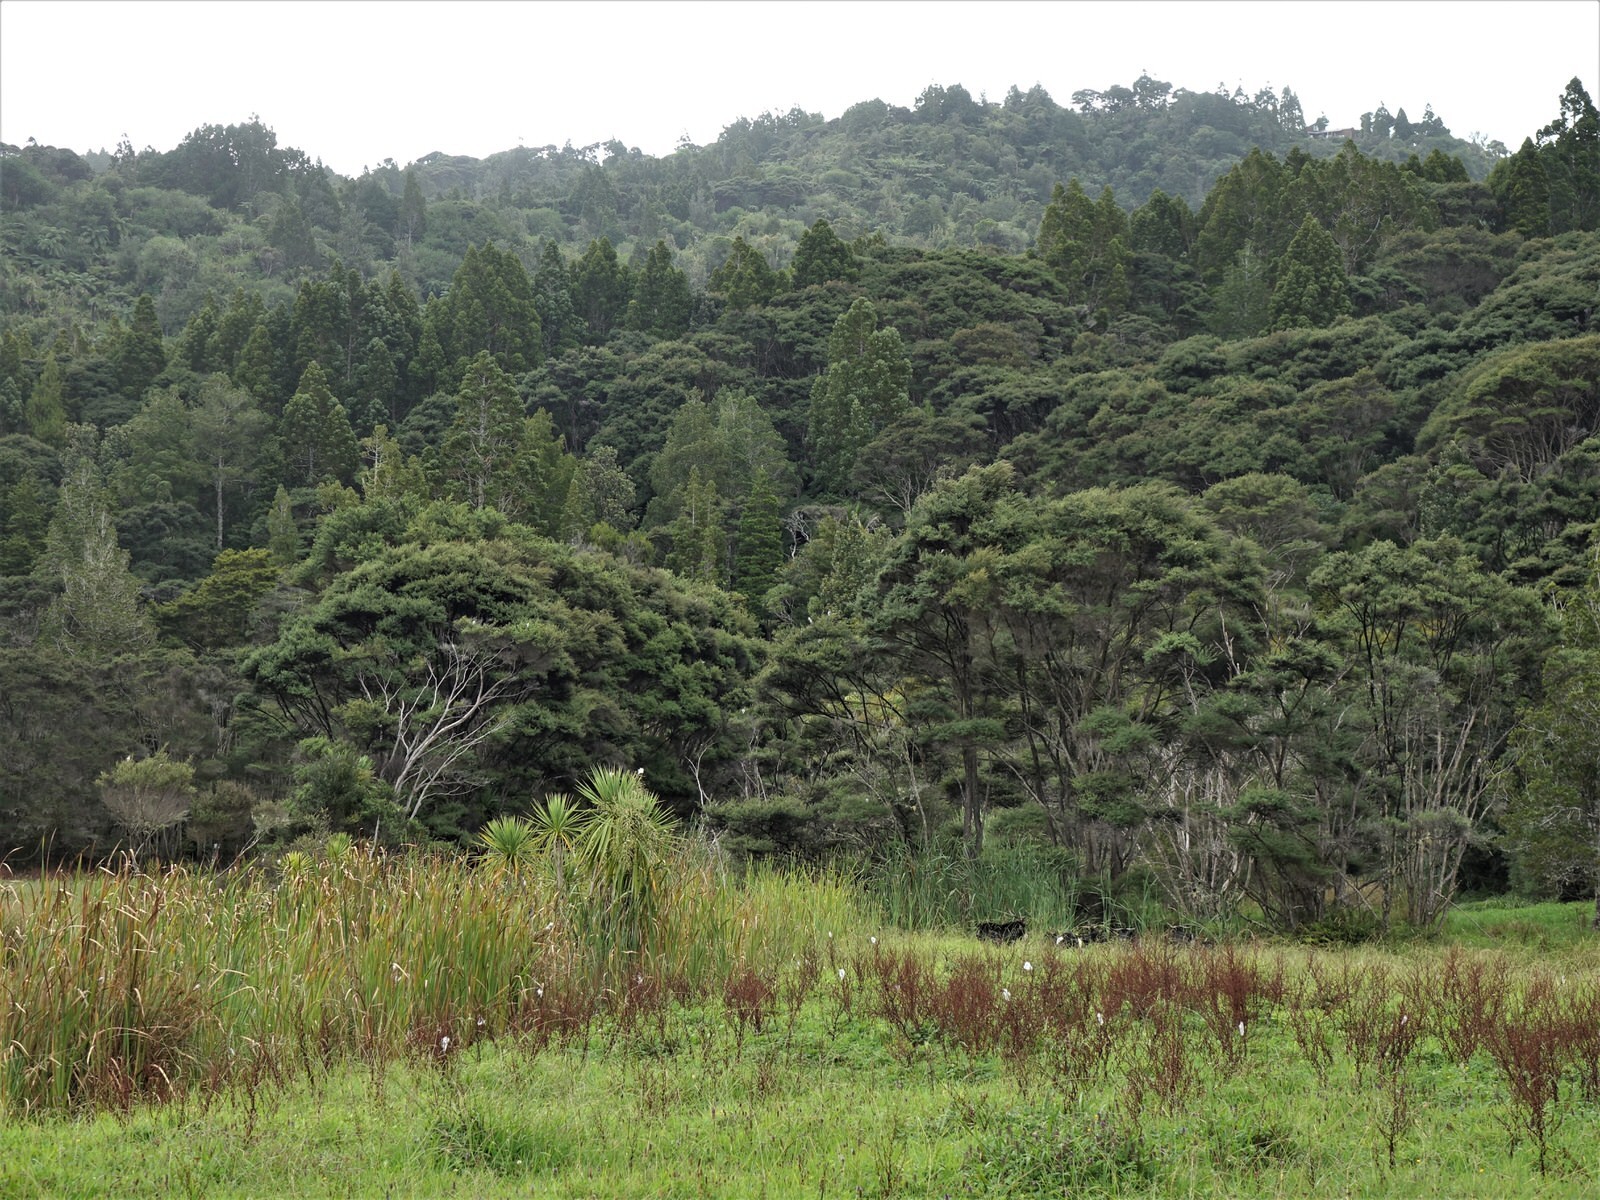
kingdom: Animalia
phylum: Chordata
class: Mammalia
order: Artiodactyla
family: Bovidae
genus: Capra
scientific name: Capra hircus
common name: Domestic goat
